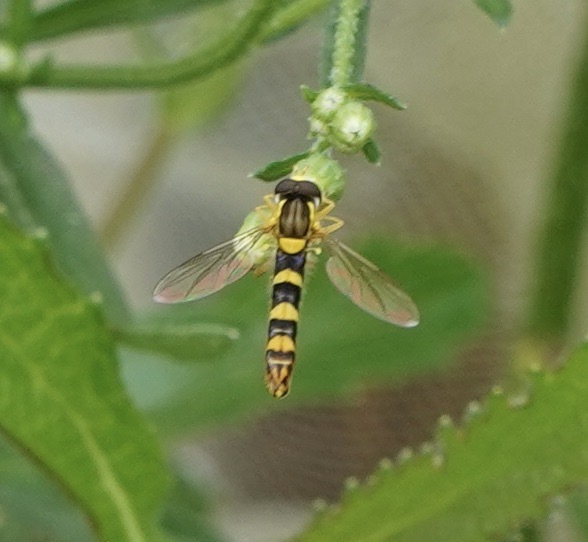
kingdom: Animalia
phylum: Arthropoda
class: Insecta
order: Diptera
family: Syrphidae
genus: Sphaerophoria
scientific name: Sphaerophoria scripta
